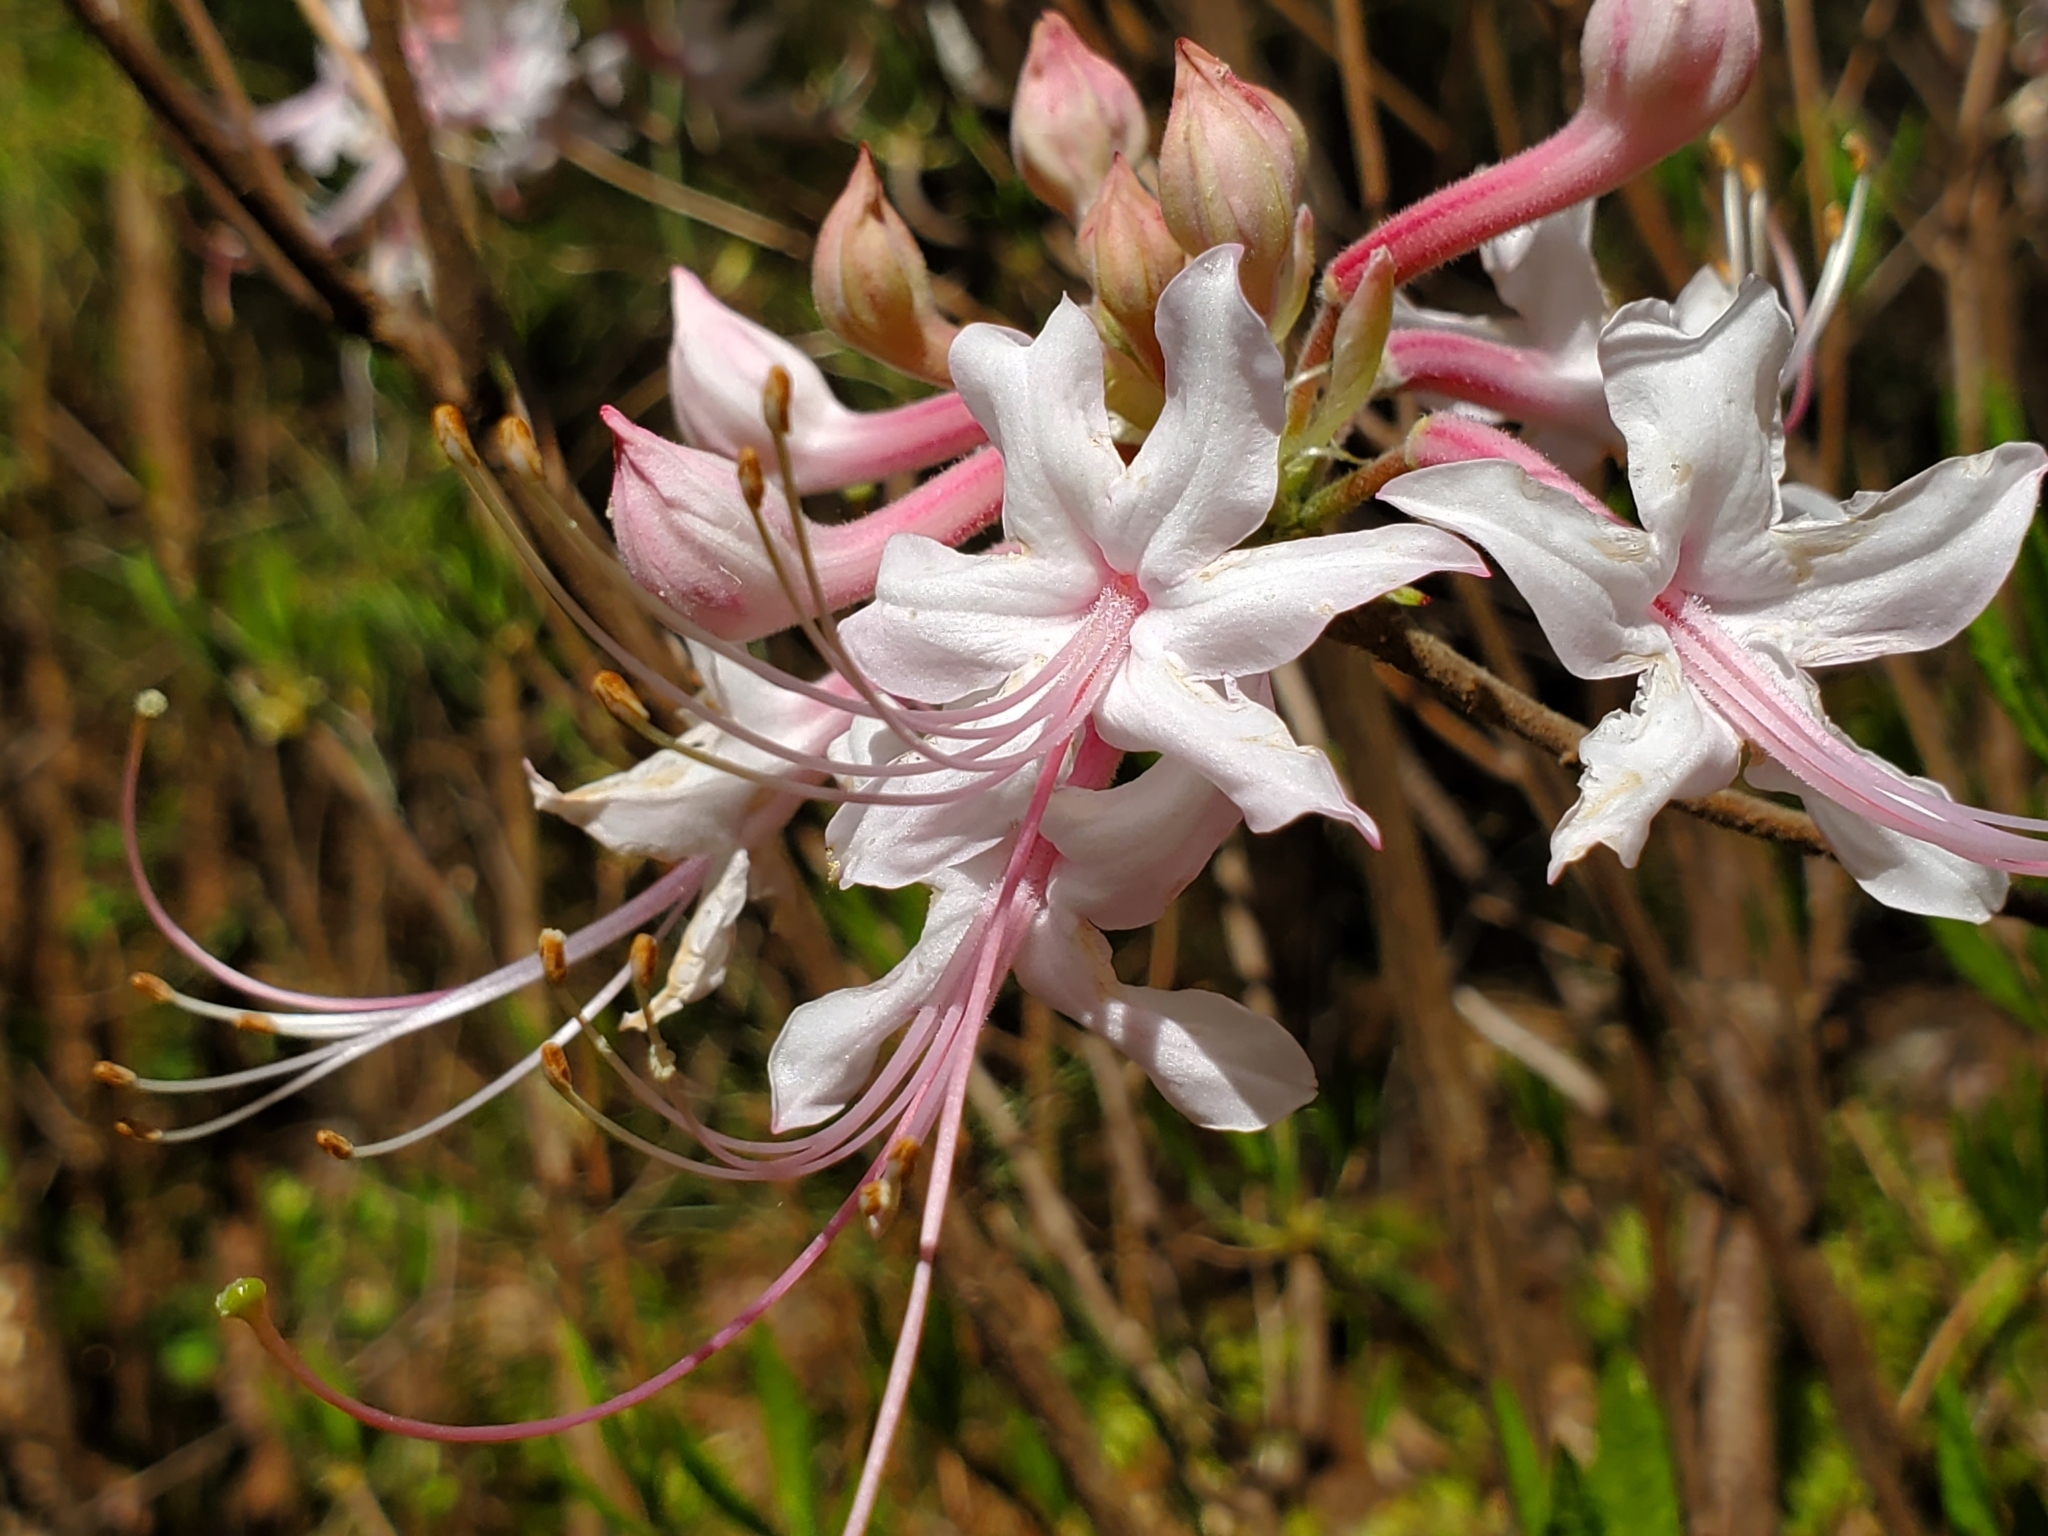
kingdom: Plantae
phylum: Tracheophyta
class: Magnoliopsida
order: Ericales
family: Ericaceae
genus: Rhododendron
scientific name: Rhododendron canescens
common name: Mountain azalea
